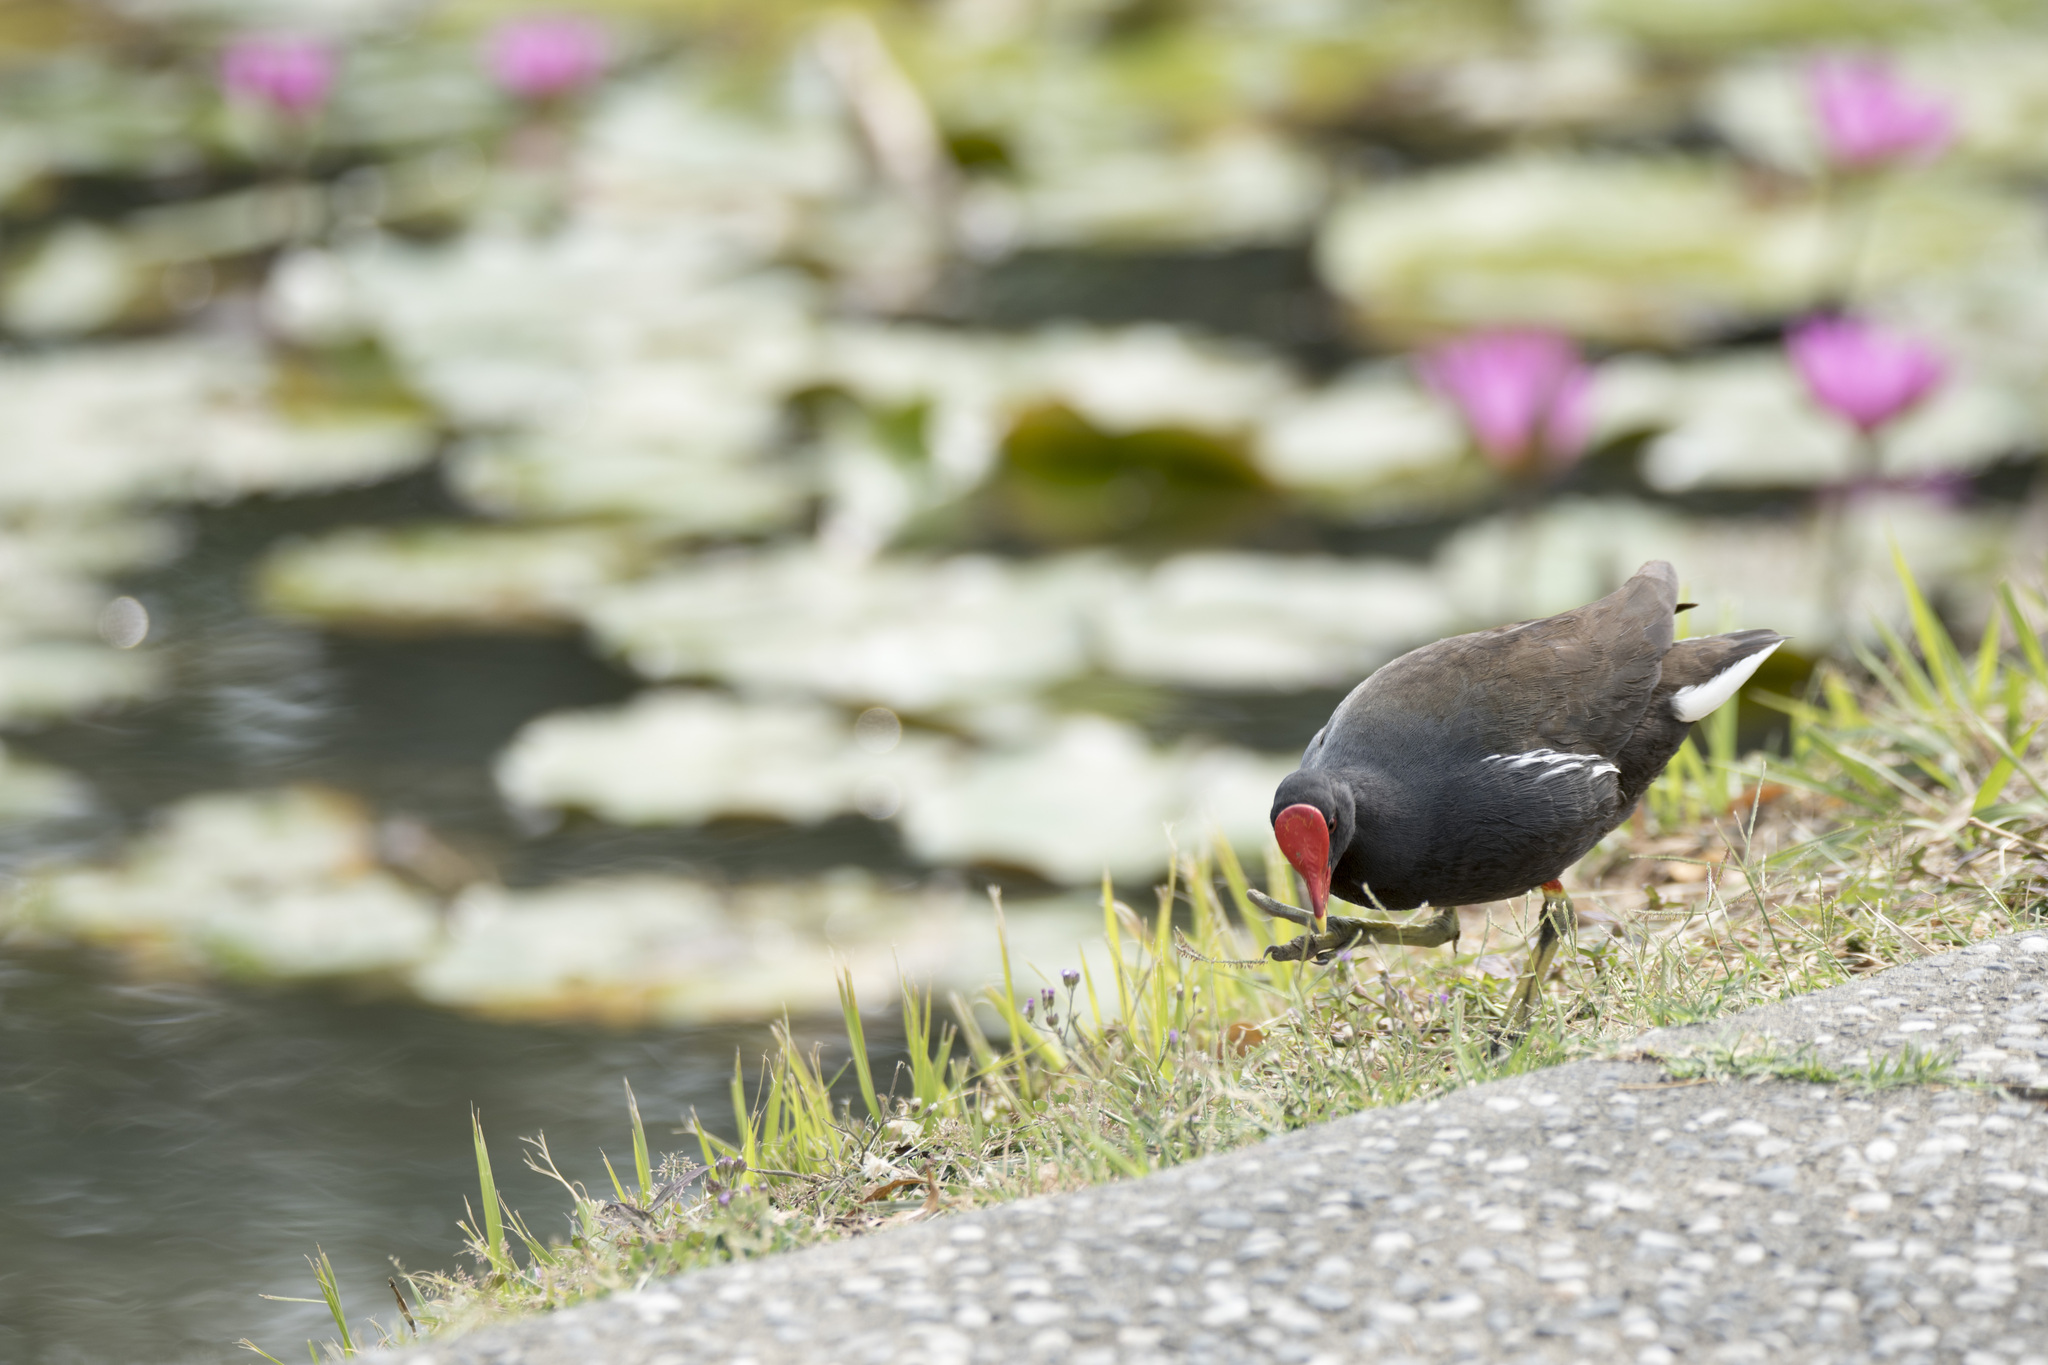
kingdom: Animalia
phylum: Chordata
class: Aves
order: Gruiformes
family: Rallidae
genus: Gallinula
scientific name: Gallinula chloropus
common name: Common moorhen
